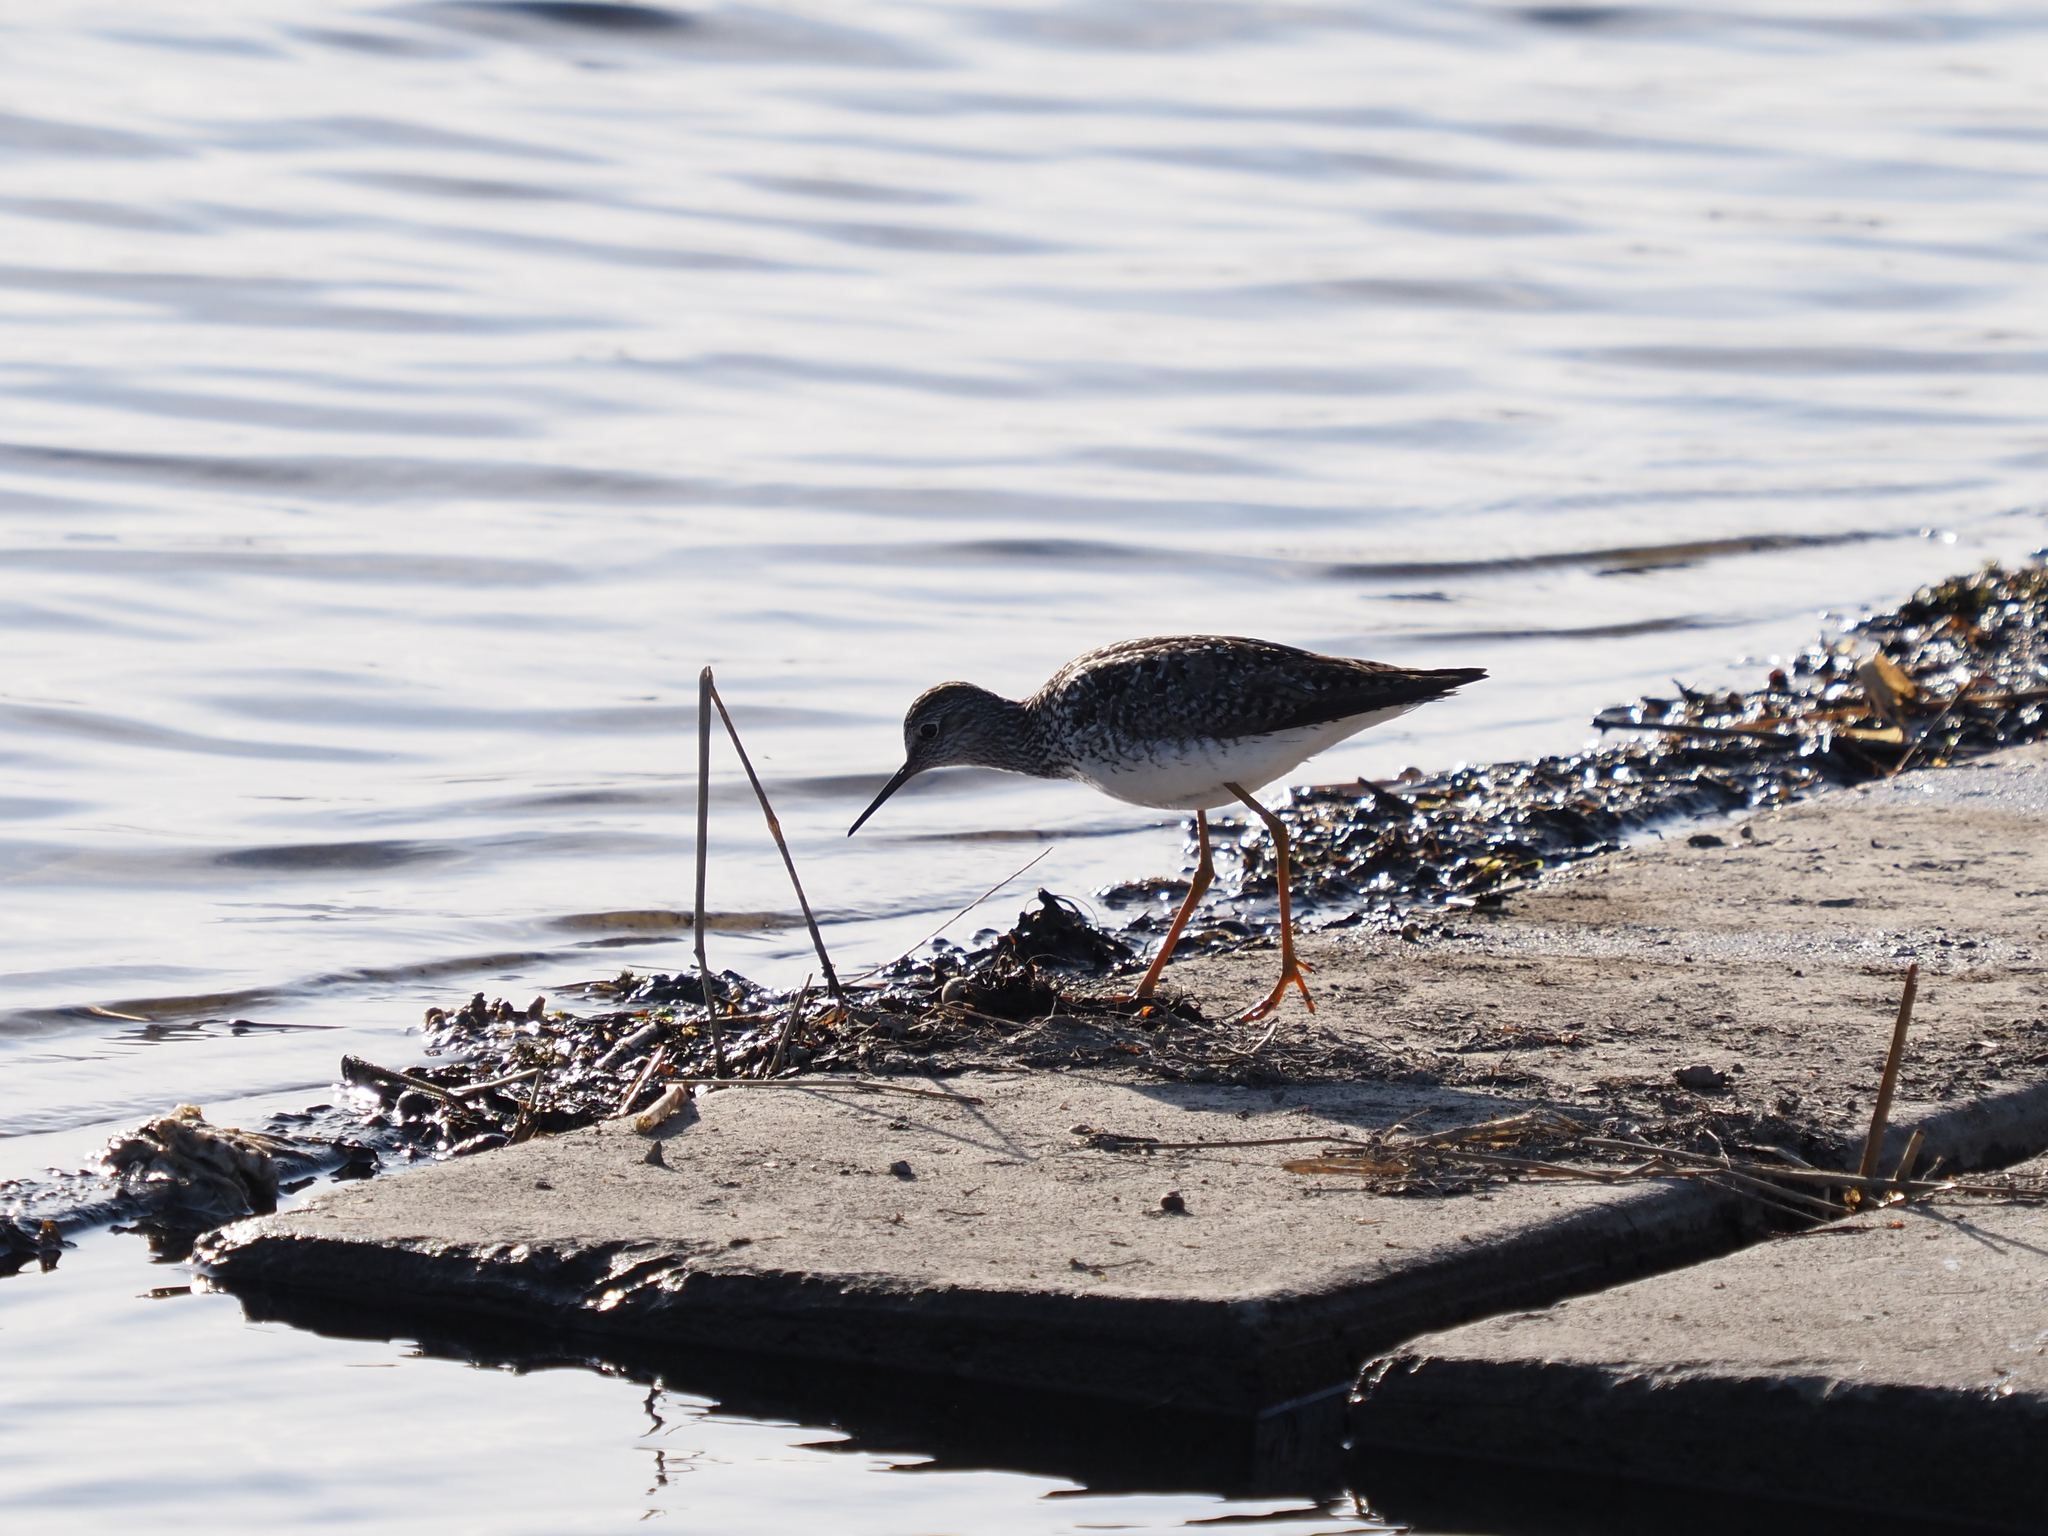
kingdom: Animalia
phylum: Chordata
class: Aves
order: Charadriiformes
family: Scolopacidae
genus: Tringa
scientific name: Tringa flavipes
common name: Lesser yellowlegs
